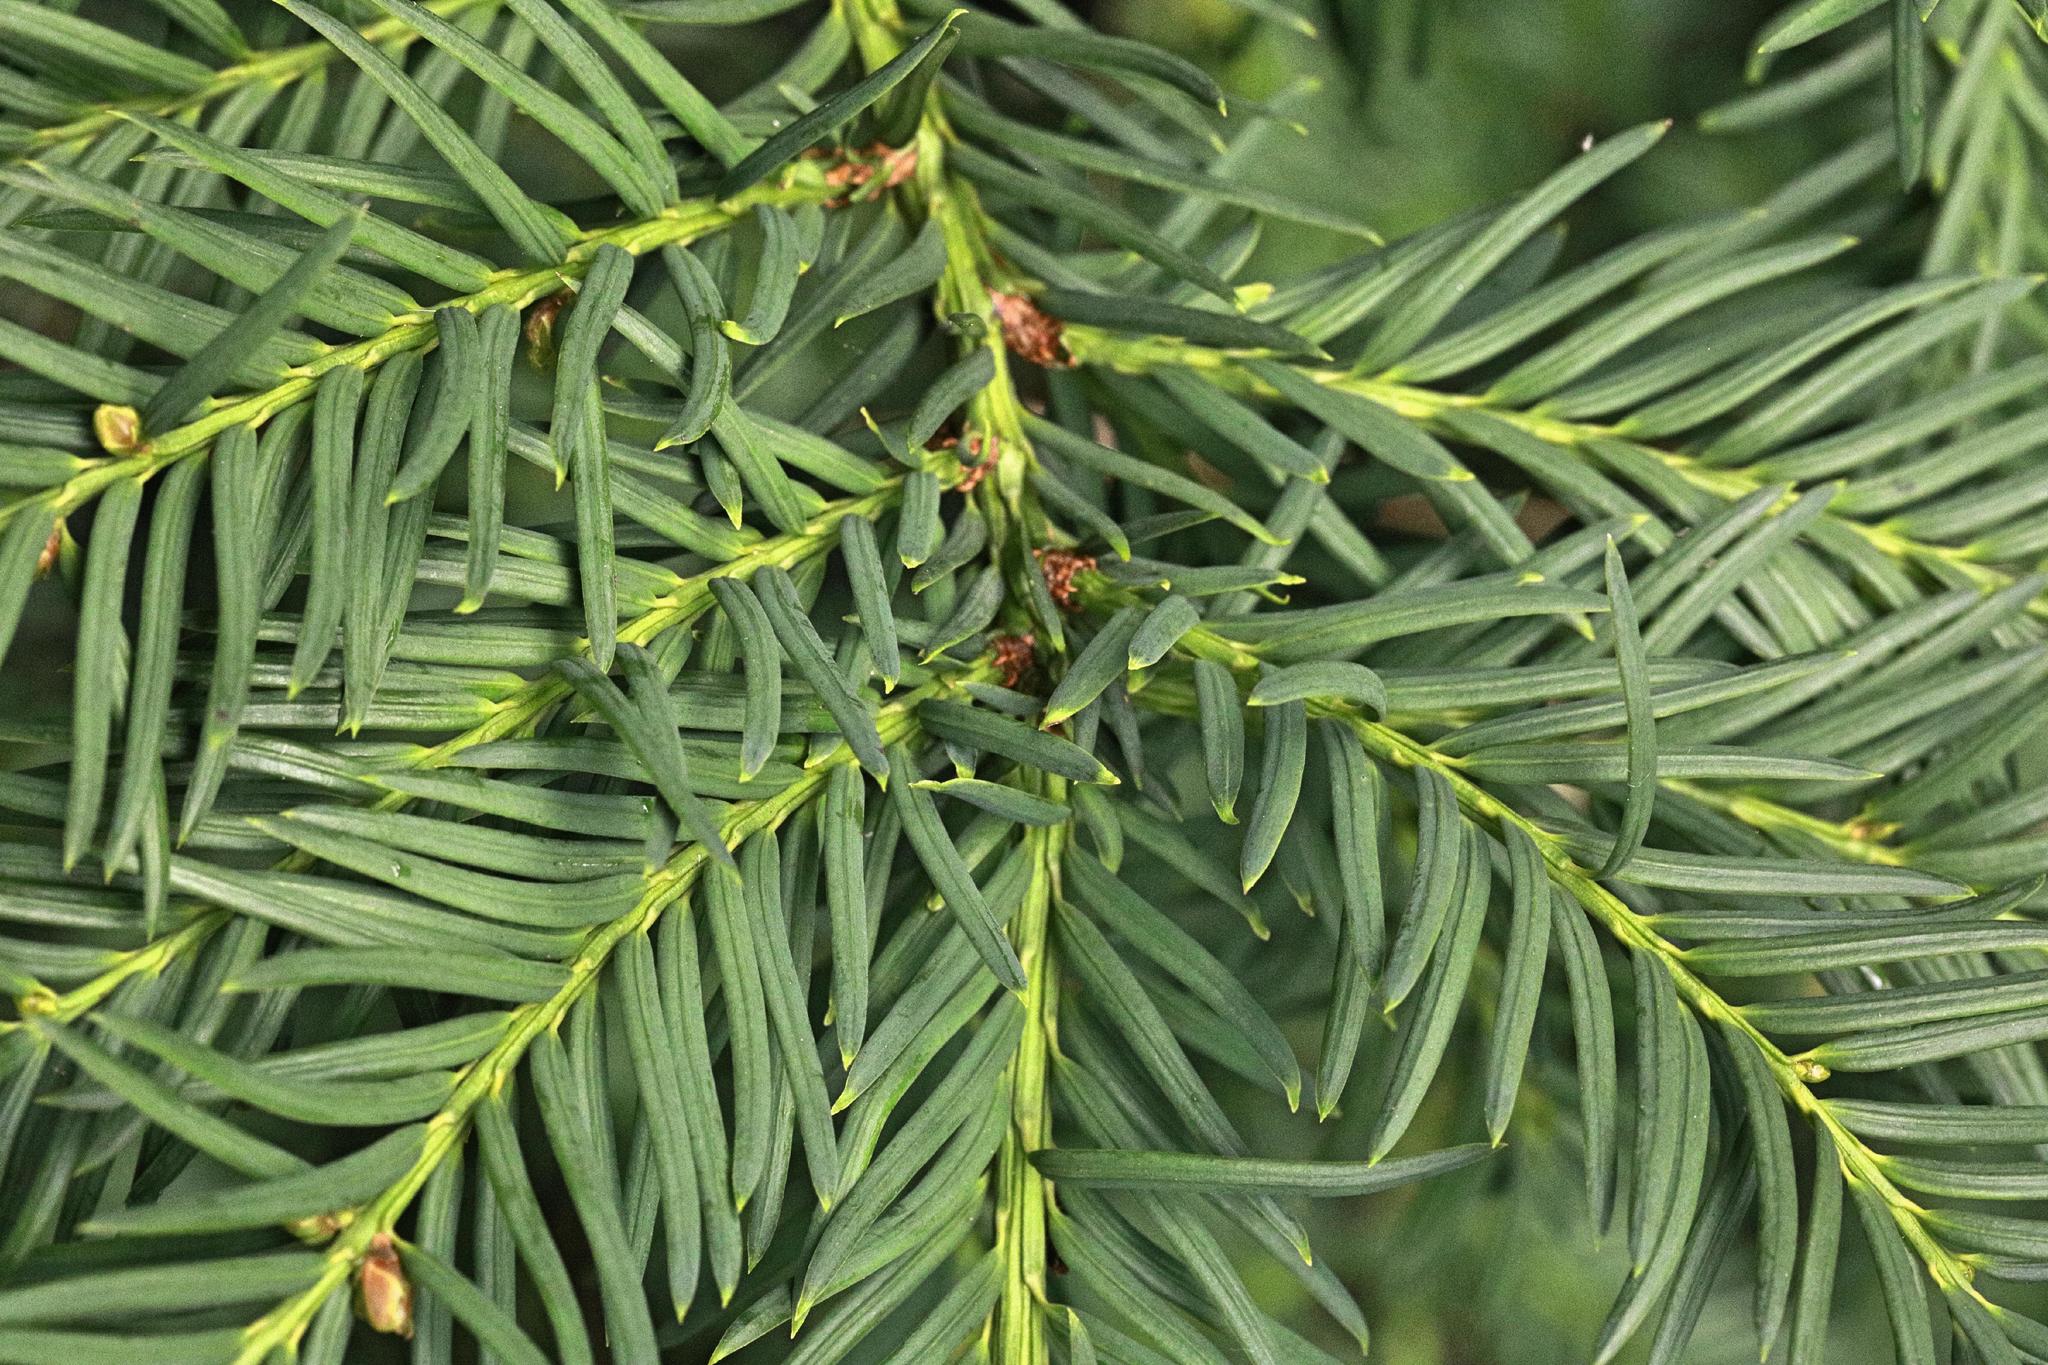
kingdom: Plantae
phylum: Tracheophyta
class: Pinopsida
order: Pinales
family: Taxaceae
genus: Taxus
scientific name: Taxus baccata
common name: Yew
